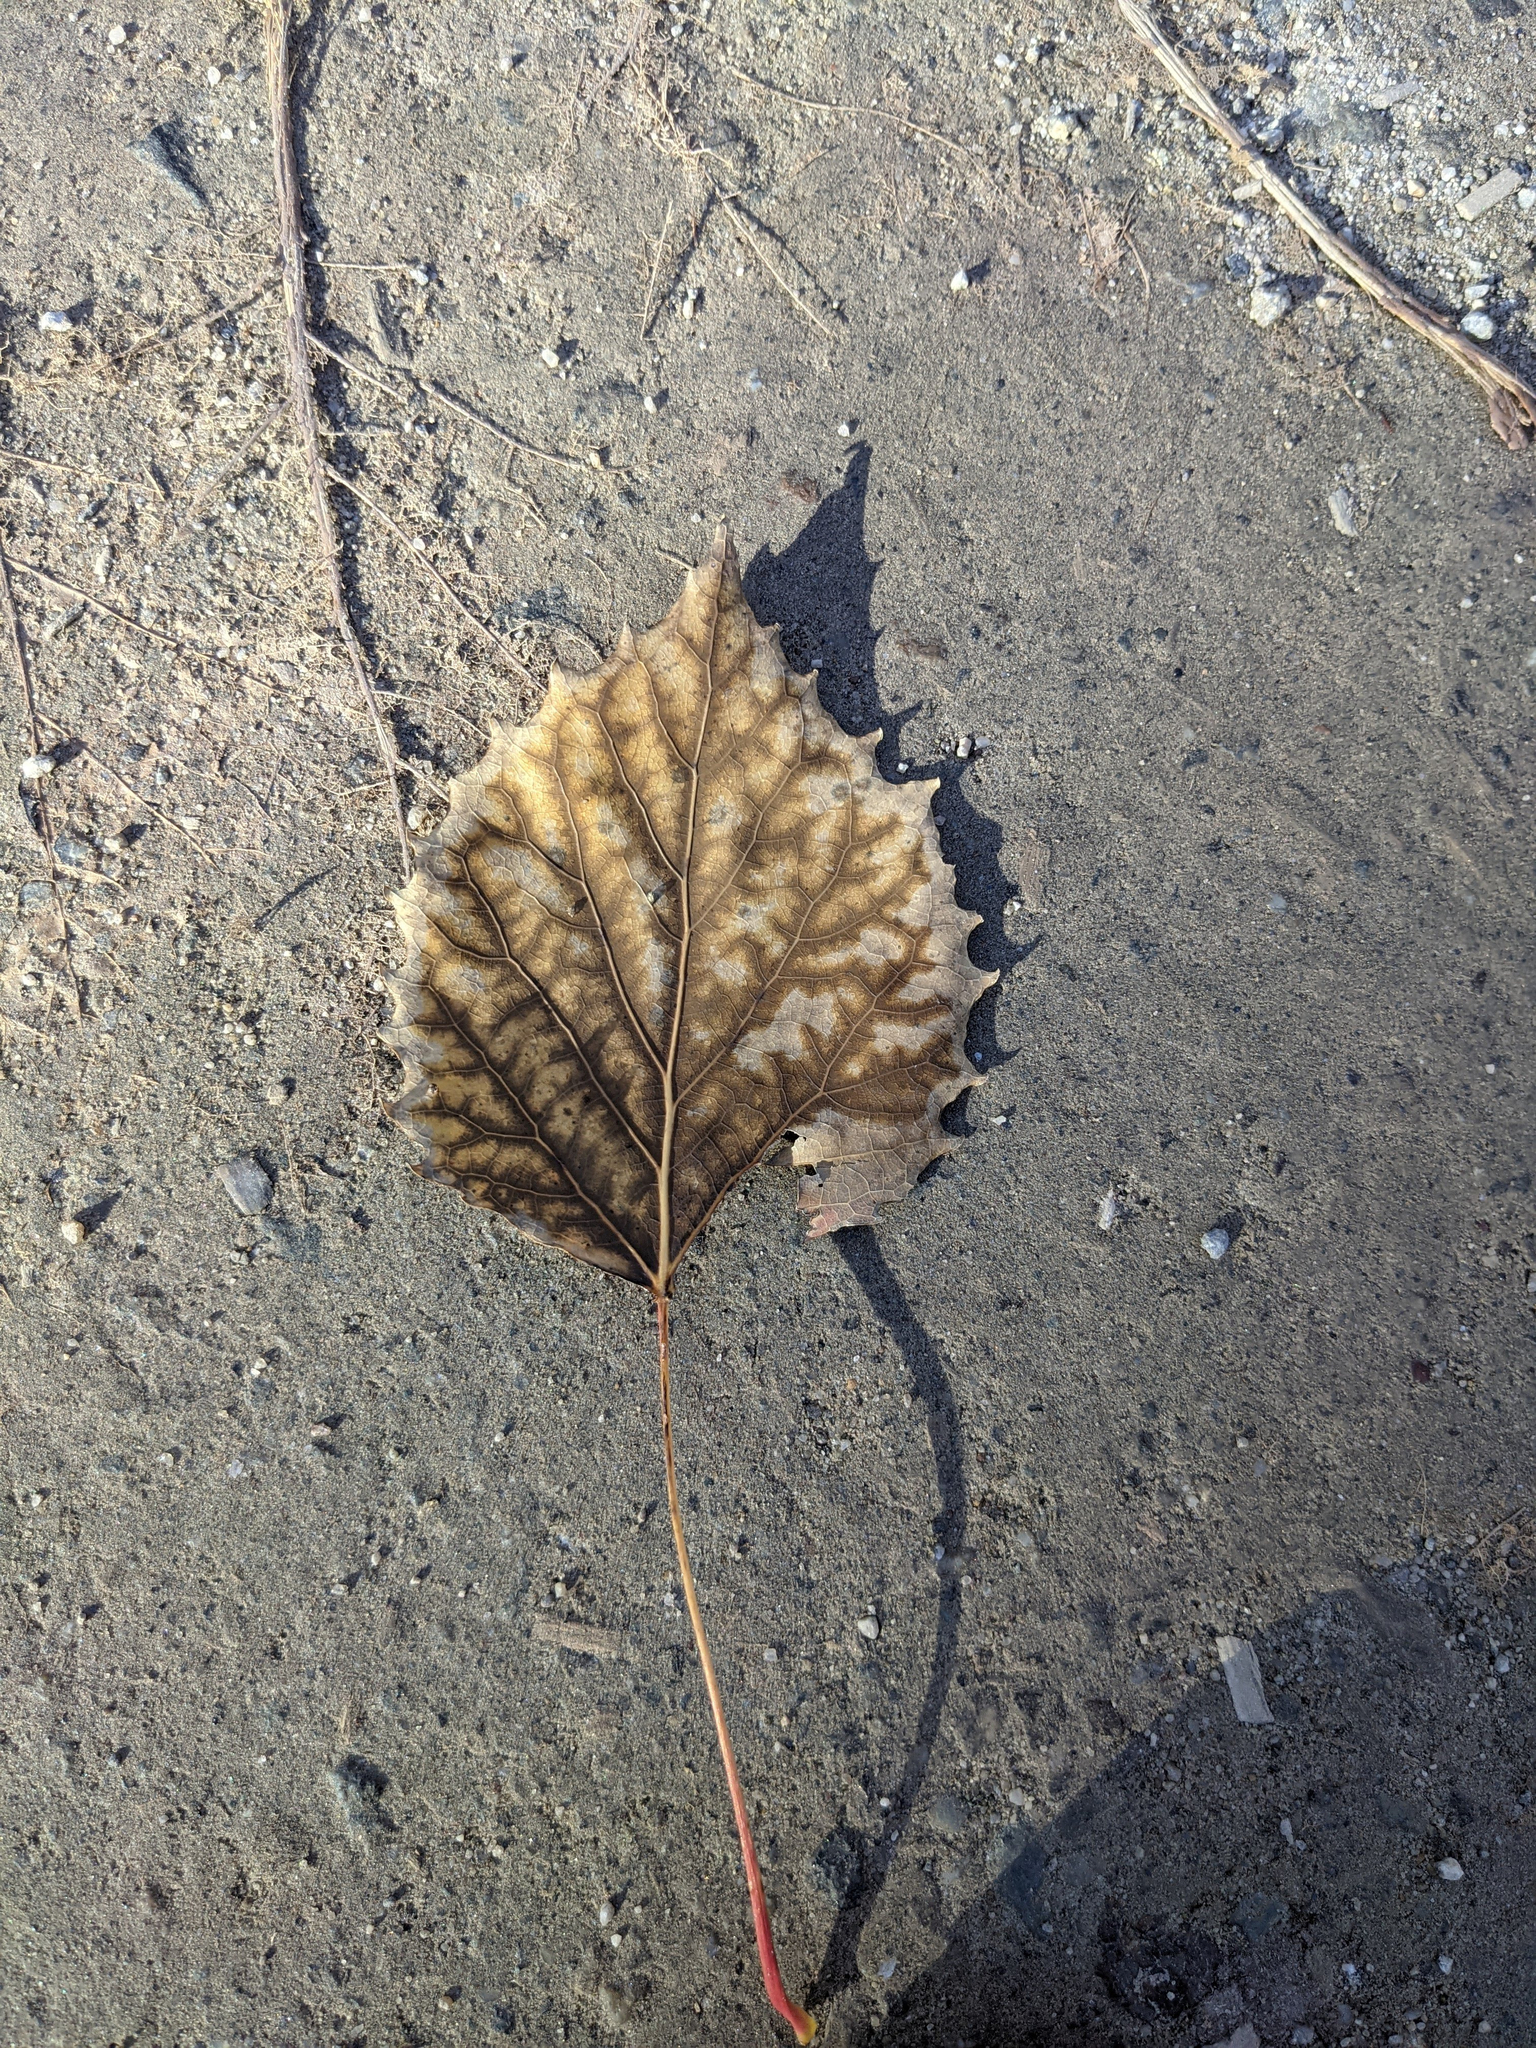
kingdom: Plantae
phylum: Tracheophyta
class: Magnoliopsida
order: Malpighiales
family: Salicaceae
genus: Populus
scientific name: Populus grandidentata
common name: Bigtooth aspen
